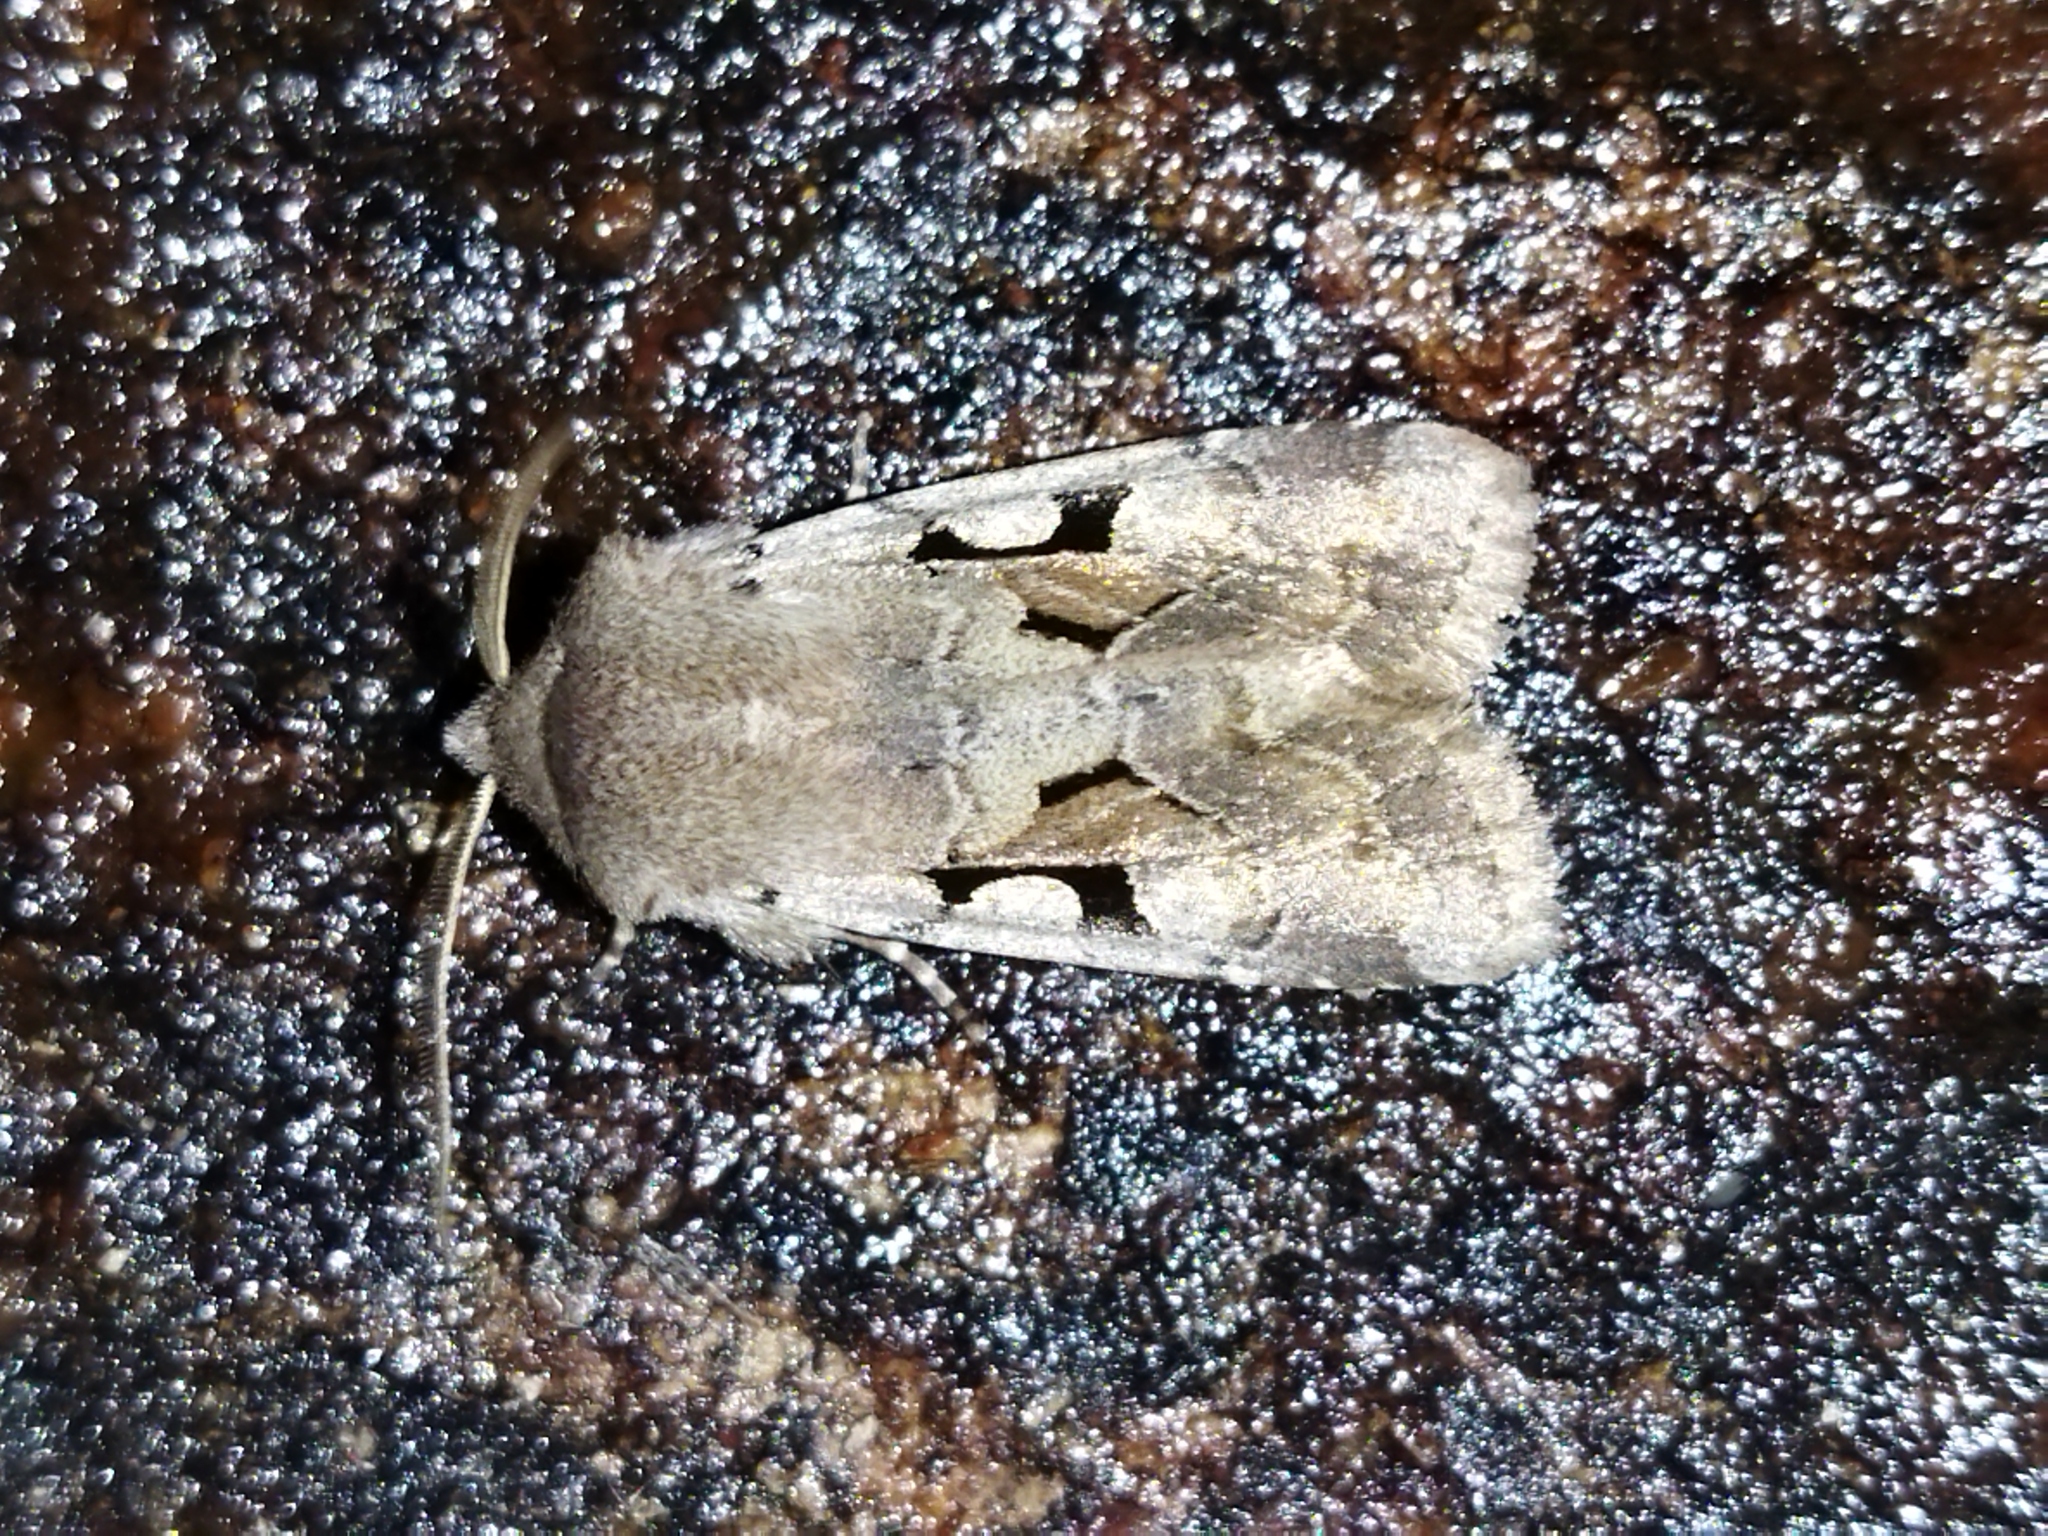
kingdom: Animalia
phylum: Arthropoda
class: Insecta
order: Lepidoptera
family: Noctuidae
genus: Orthosia
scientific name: Orthosia gothica
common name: Hebrew character
